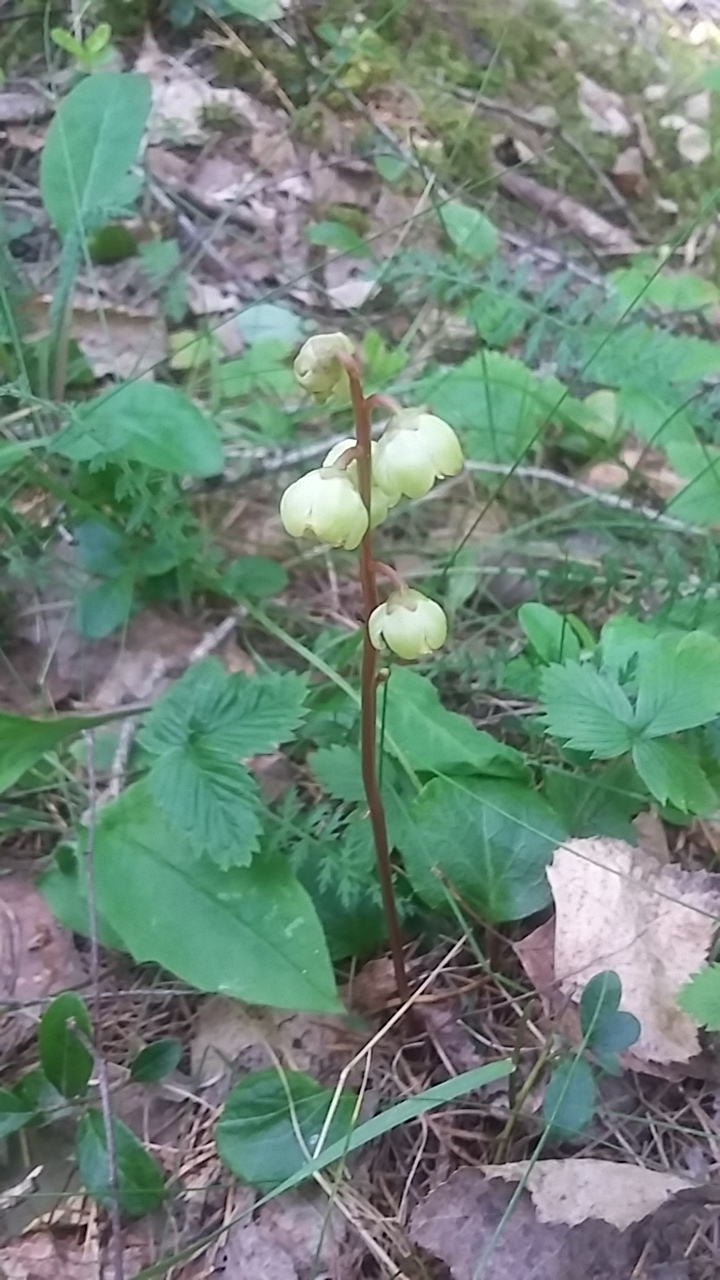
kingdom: Plantae
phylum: Tracheophyta
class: Magnoliopsida
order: Ericales
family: Ericaceae
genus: Pyrola
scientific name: Pyrola chlorantha
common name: Green wintergreen
